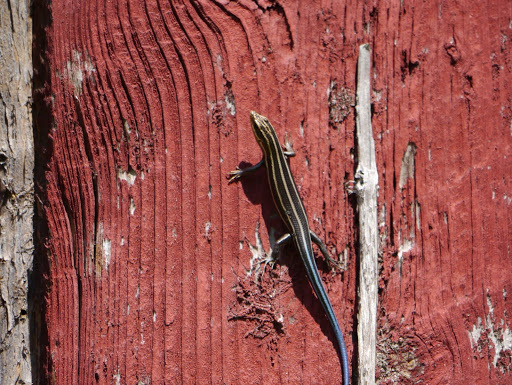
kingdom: Animalia
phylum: Chordata
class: Squamata
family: Scincidae
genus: Plestiodon
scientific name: Plestiodon fasciatus
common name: Five-lined skink
